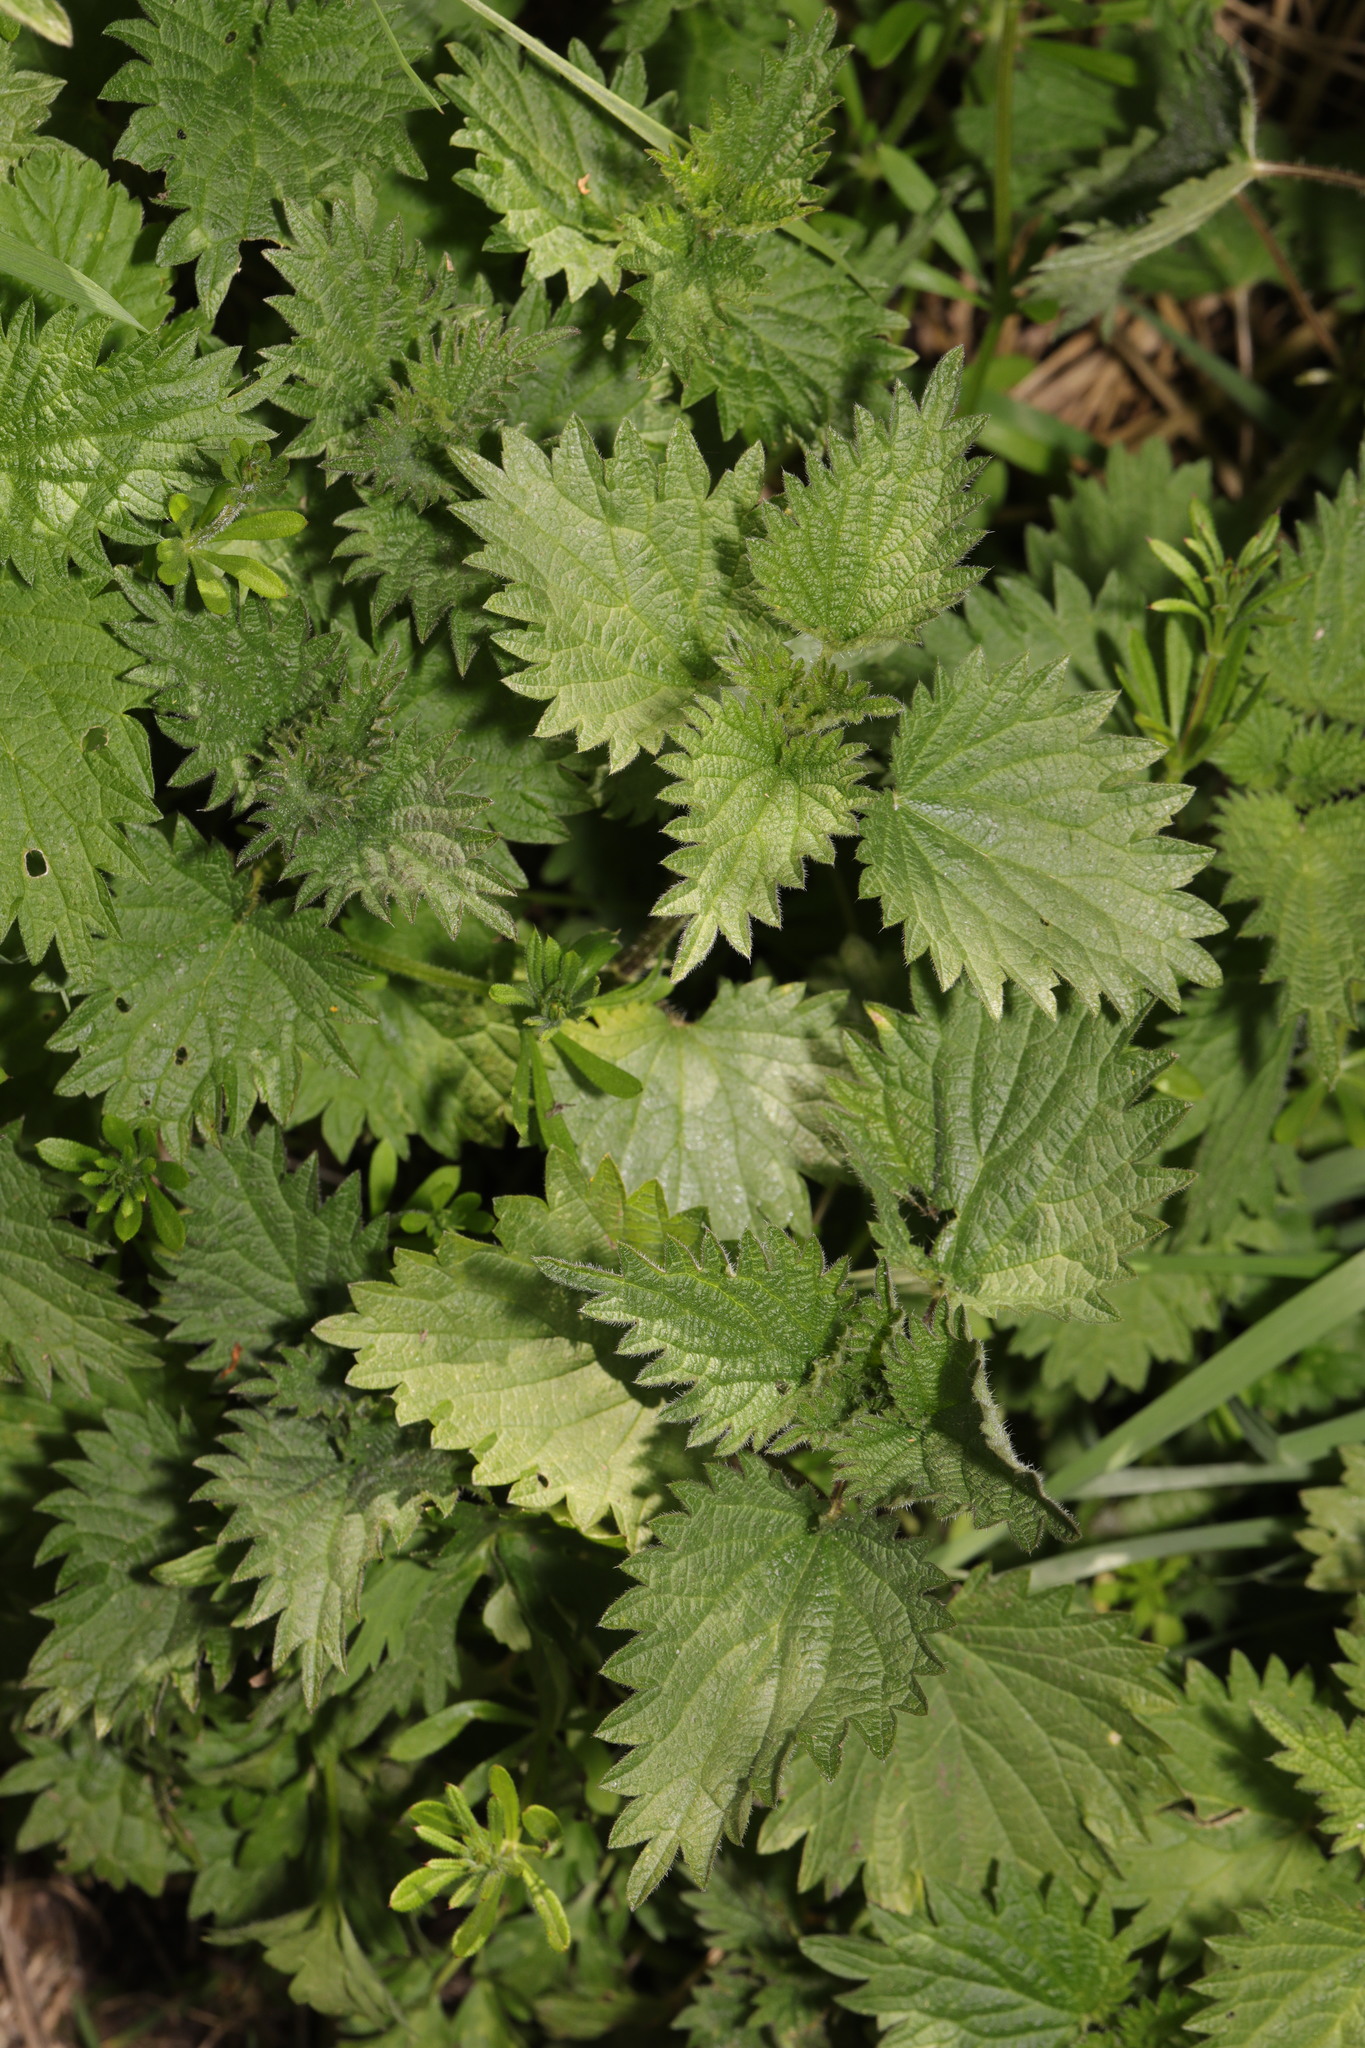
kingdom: Plantae
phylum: Tracheophyta
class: Magnoliopsida
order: Rosales
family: Urticaceae
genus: Urtica
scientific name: Urtica dioica
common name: Common nettle
